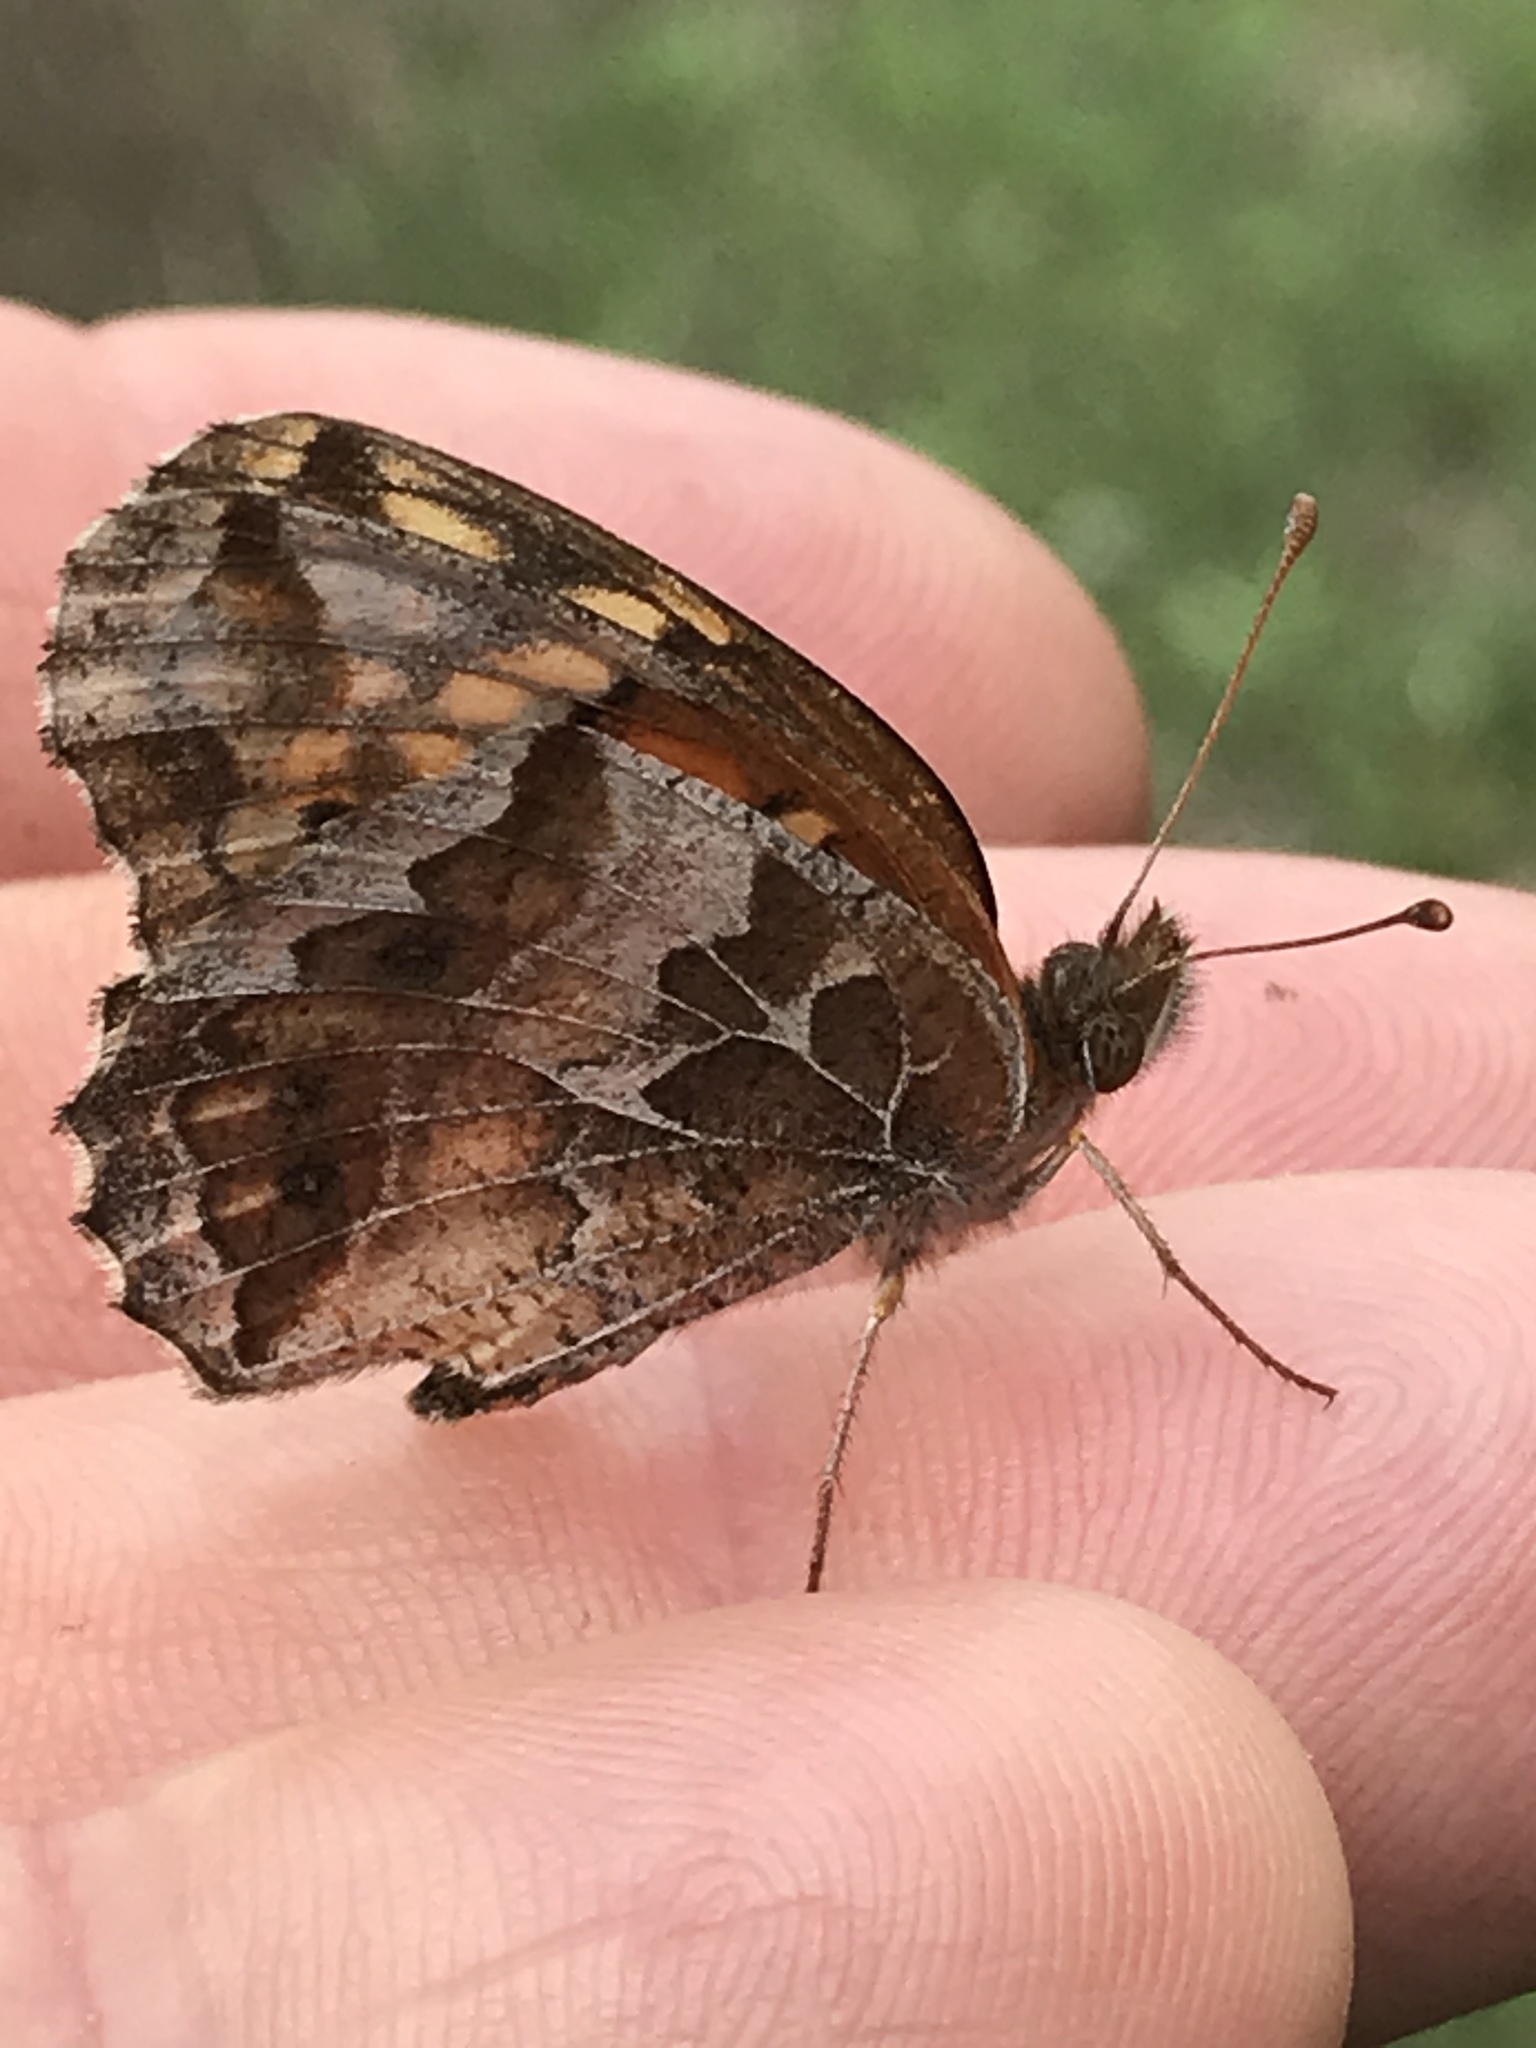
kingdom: Animalia
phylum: Arthropoda
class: Insecta
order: Lepidoptera
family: Nymphalidae
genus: Euptoieta
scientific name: Euptoieta claudia
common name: Variegated fritillary
